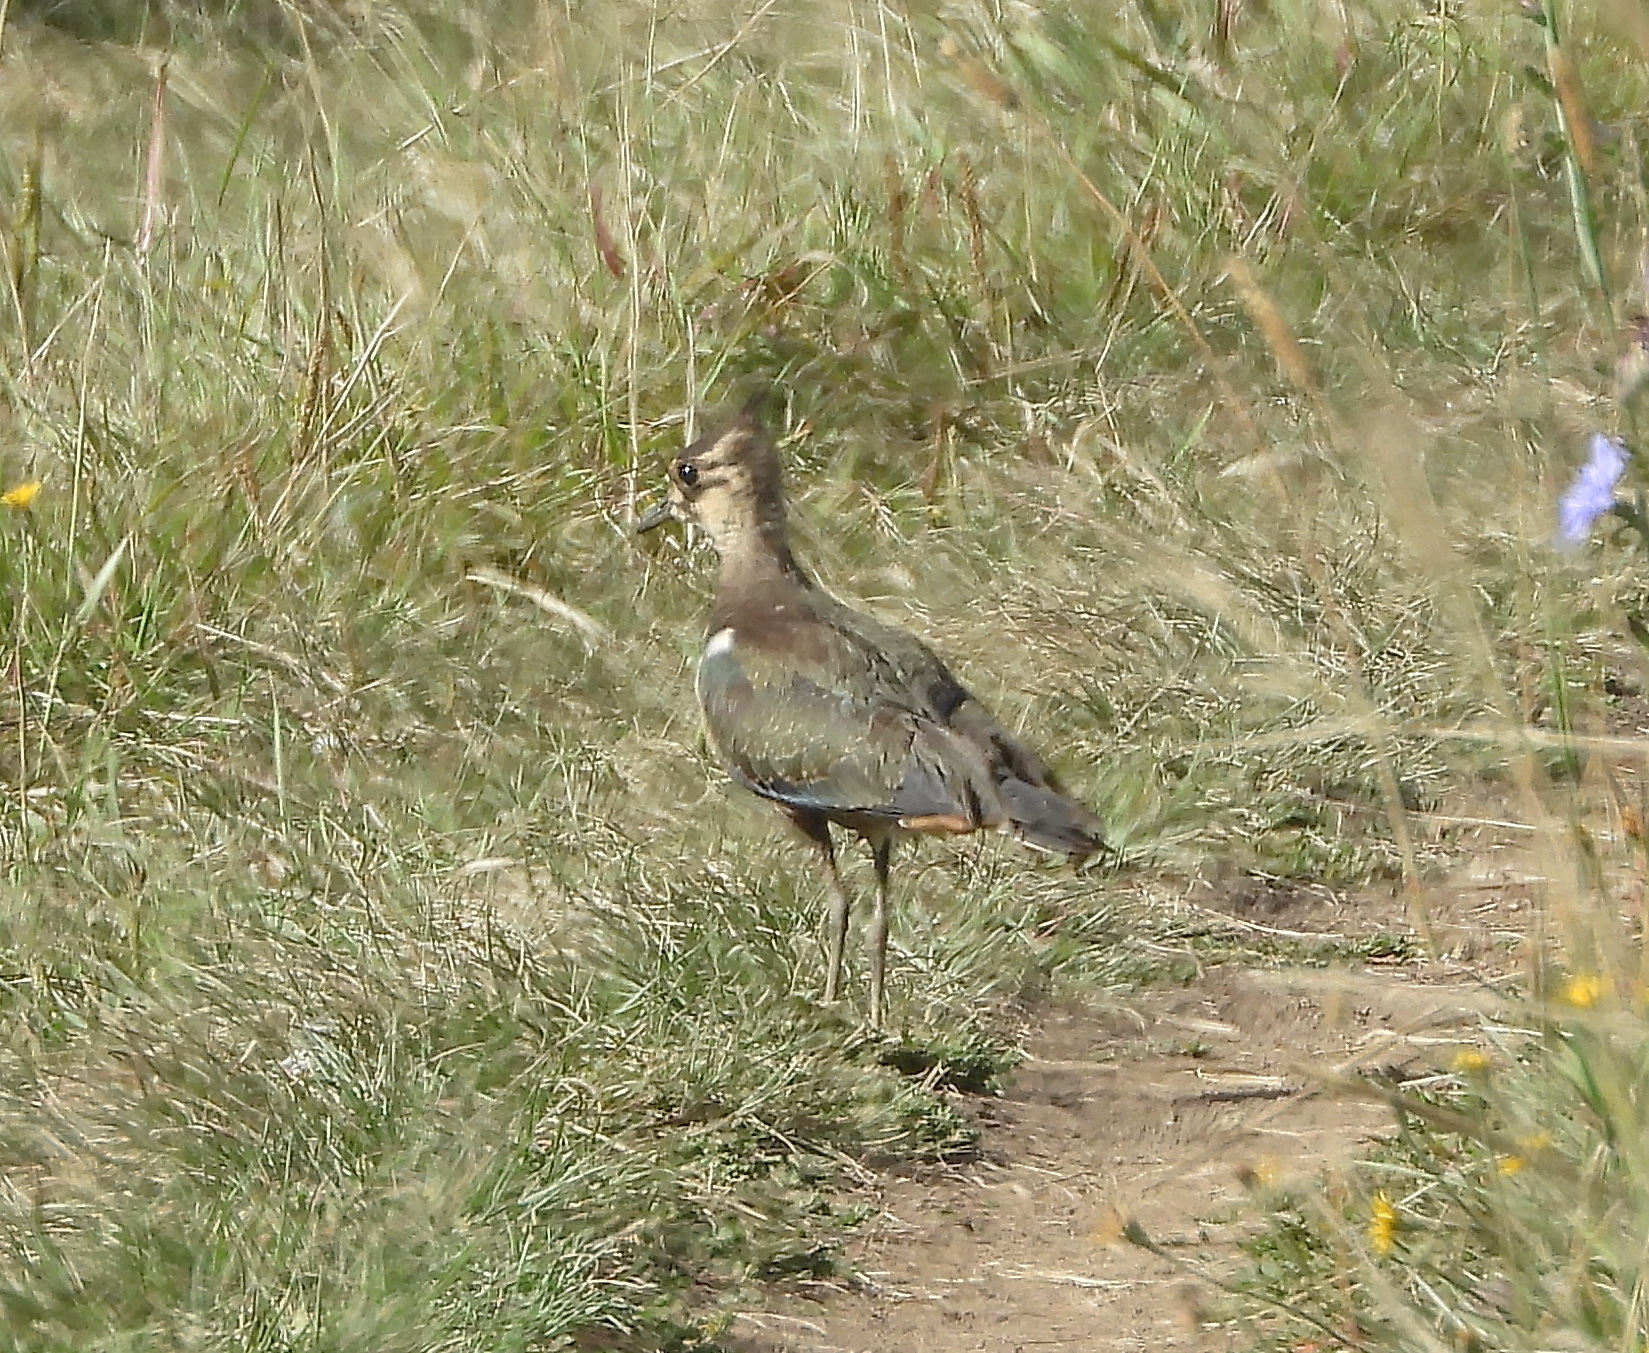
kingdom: Animalia
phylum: Chordata
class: Aves
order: Charadriiformes
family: Charadriidae
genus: Vanellus
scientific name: Vanellus vanellus
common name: Northern lapwing
